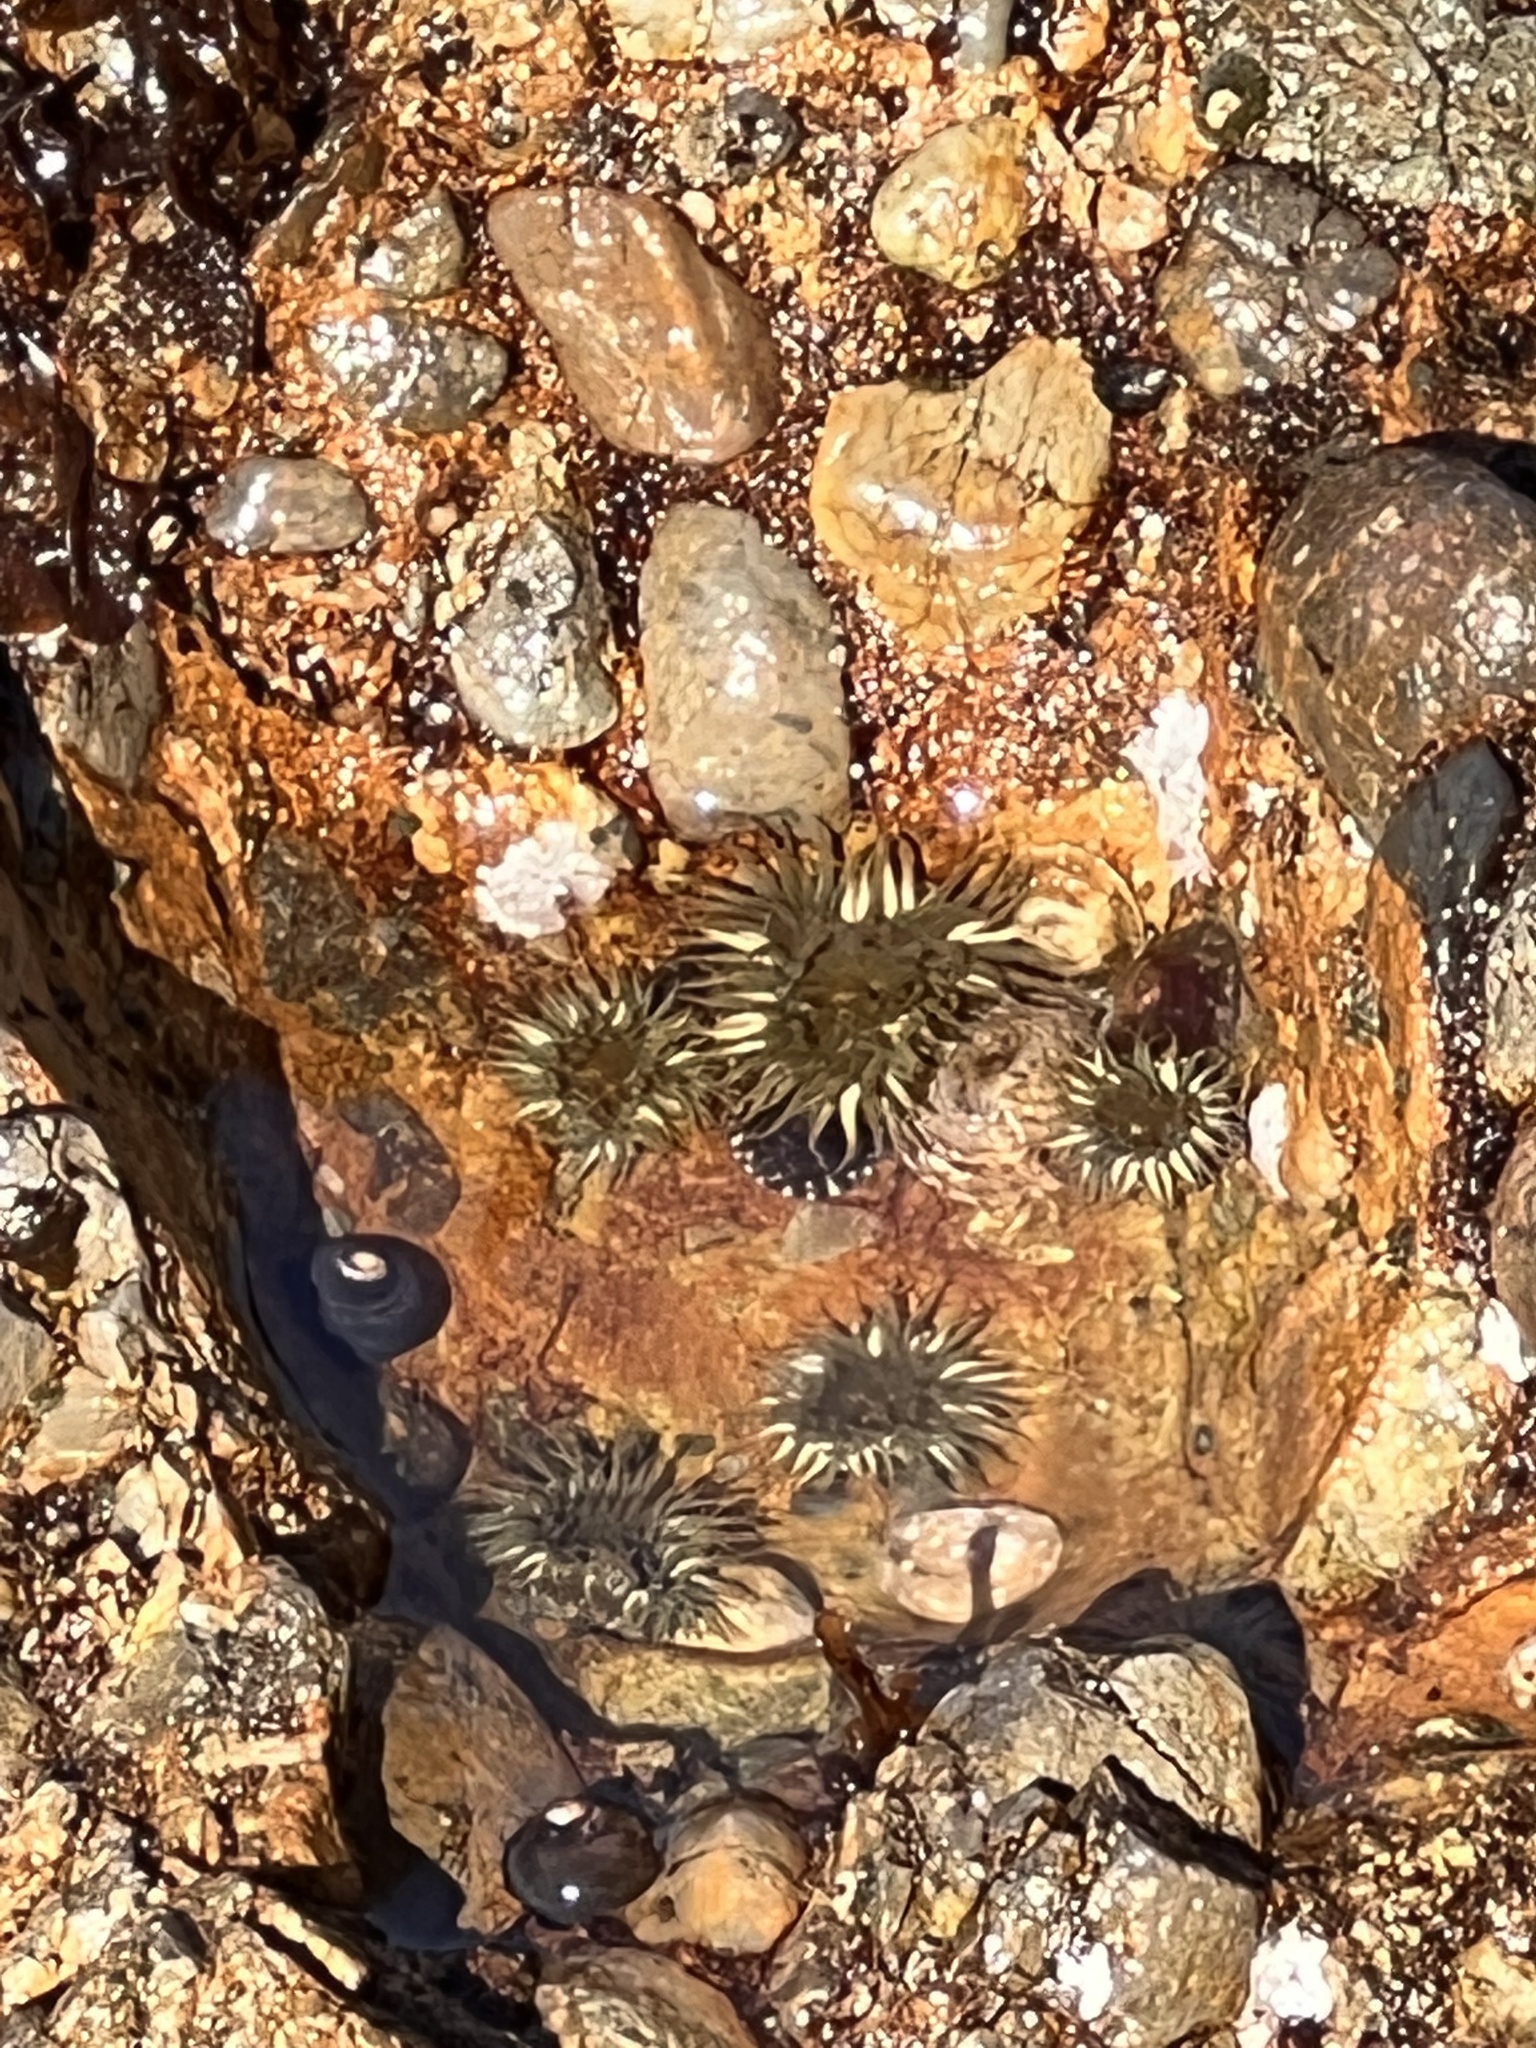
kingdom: Animalia
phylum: Cnidaria
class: Anthozoa
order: Actiniaria
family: Actiniidae
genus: Anthopleura
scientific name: Anthopleura elegantissima
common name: Clonal anemone
